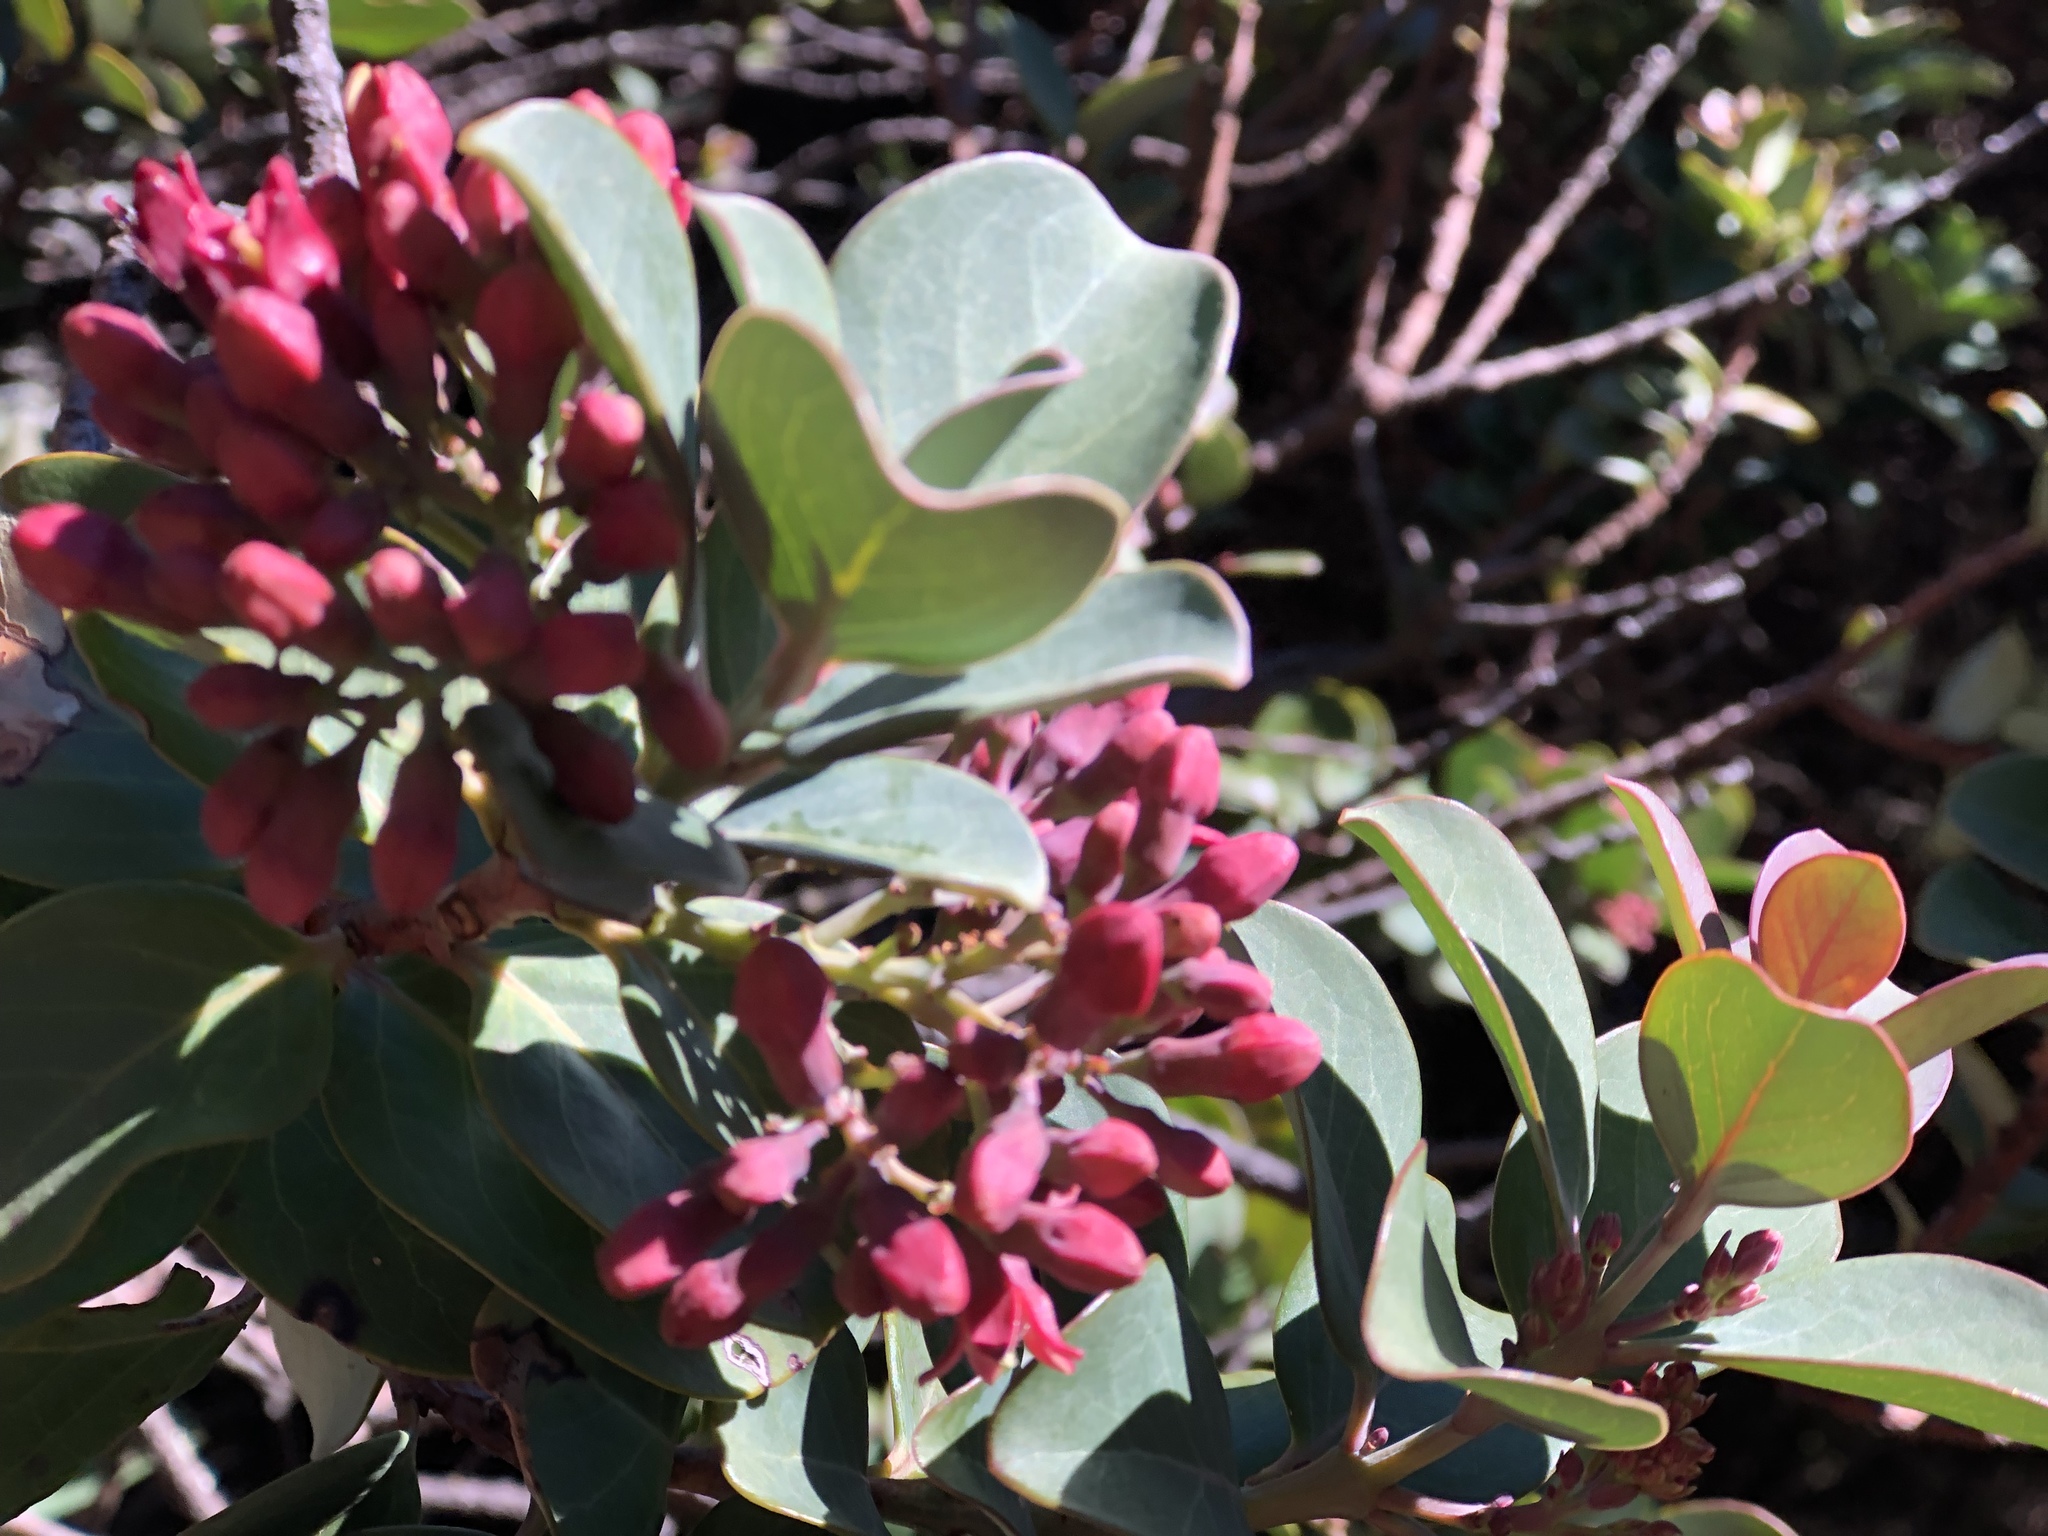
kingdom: Plantae
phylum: Tracheophyta
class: Magnoliopsida
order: Santalales
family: Santalaceae
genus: Santalum
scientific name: Santalum haleakalae
